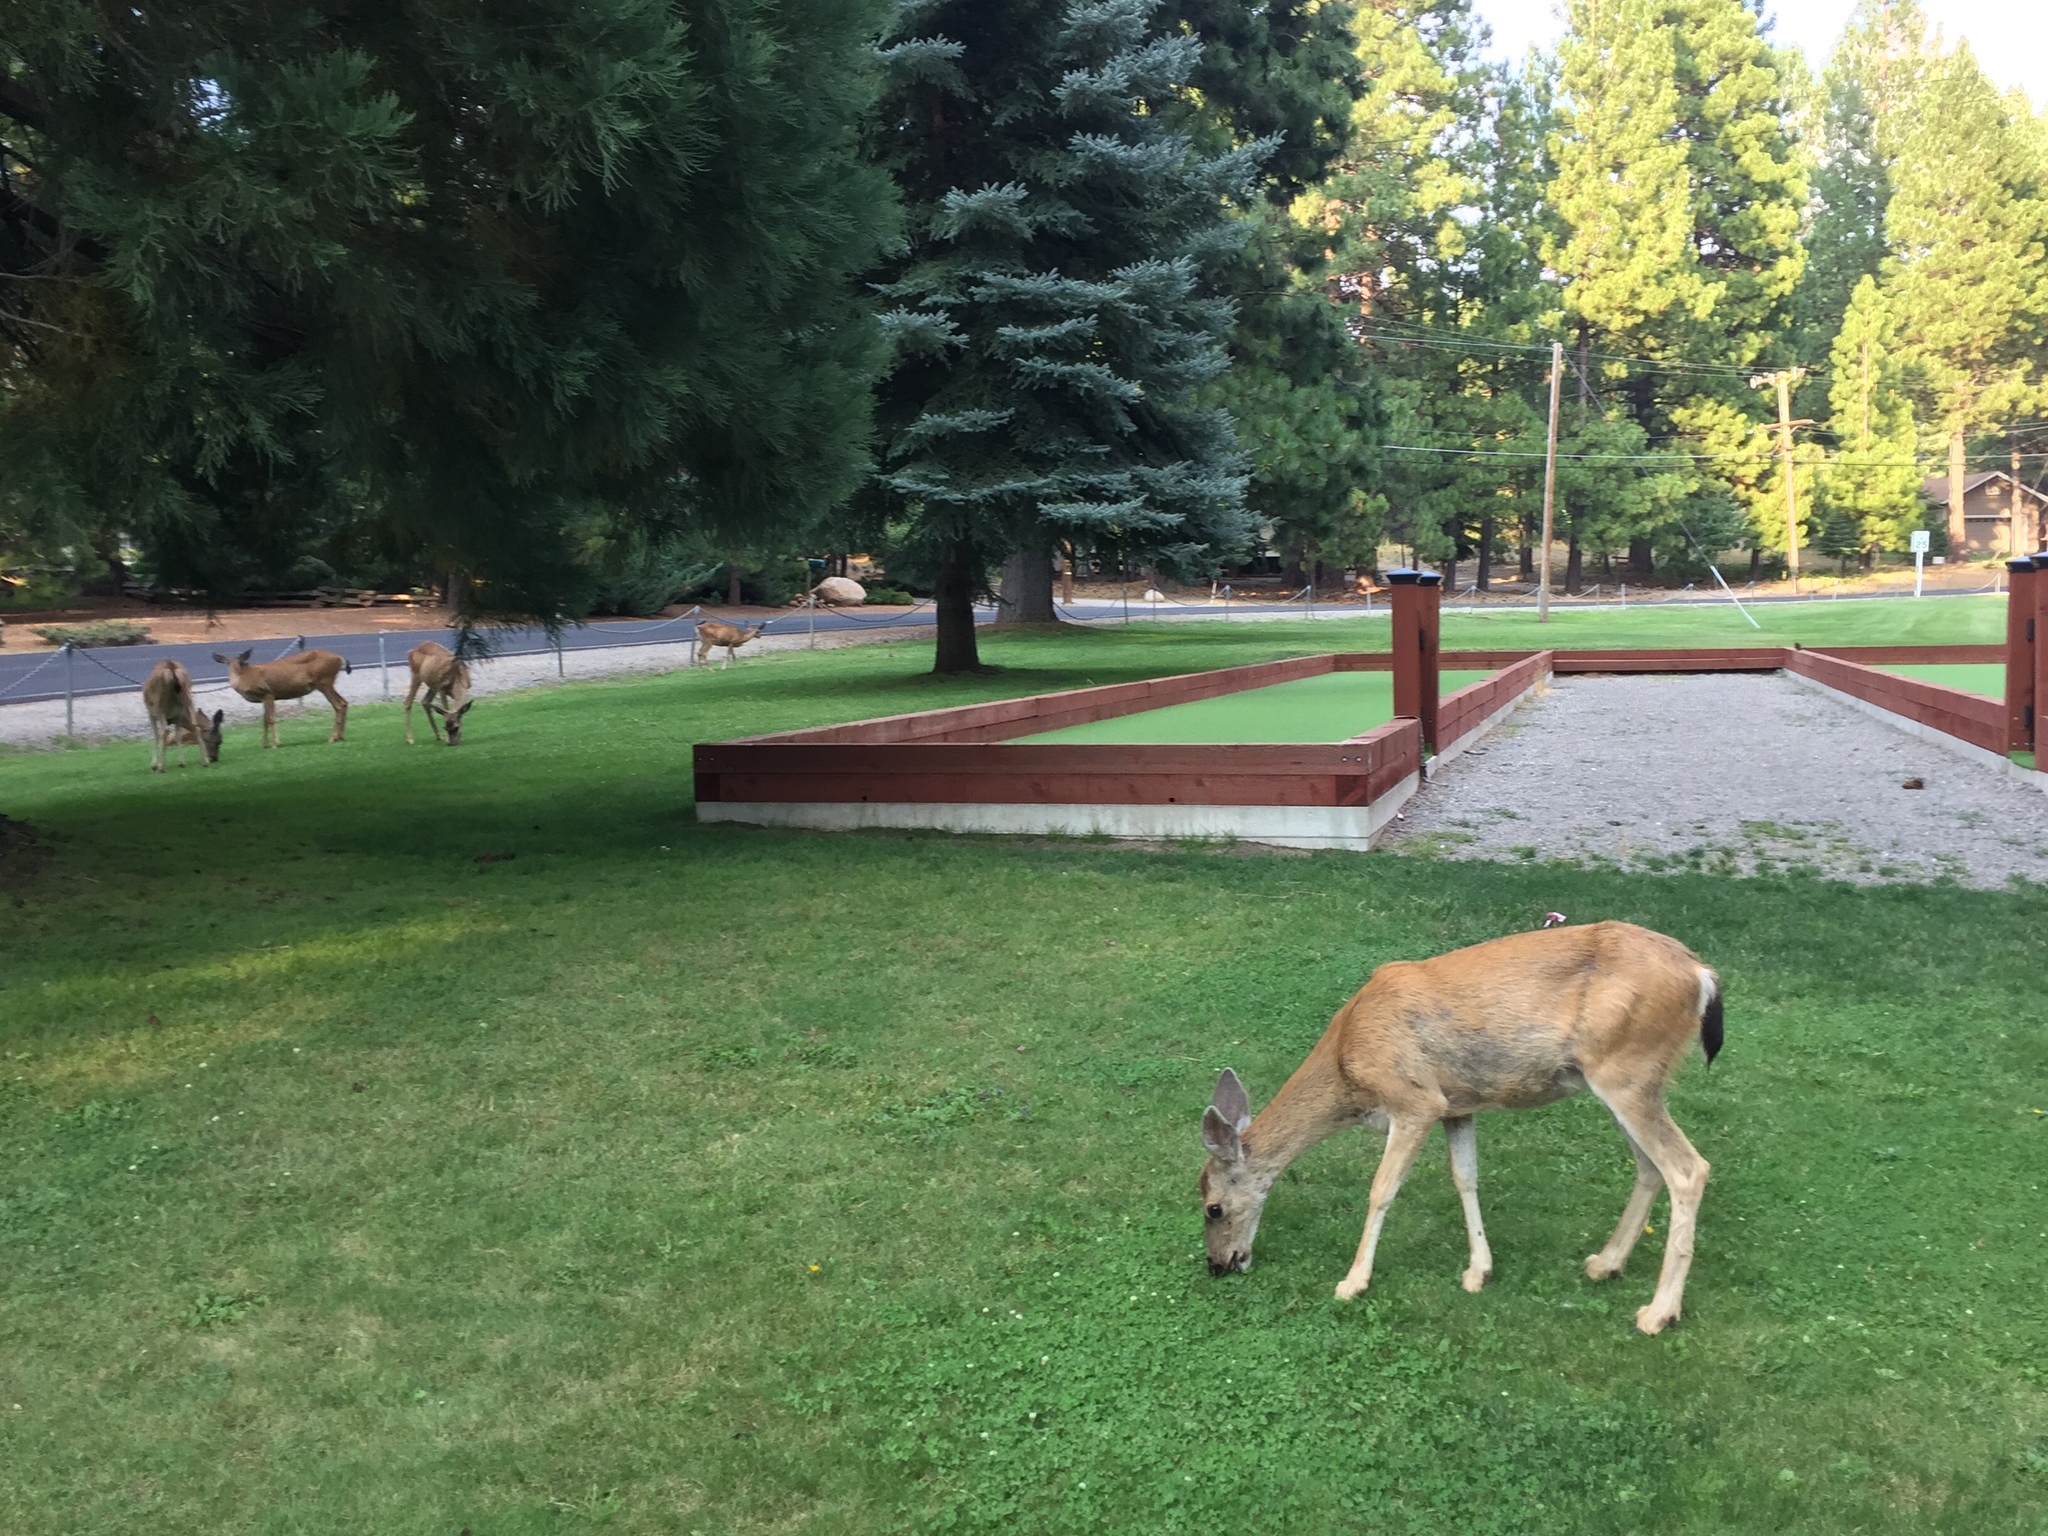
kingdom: Animalia
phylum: Chordata
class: Mammalia
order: Artiodactyla
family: Cervidae
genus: Odocoileus
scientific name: Odocoileus hemionus
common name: Mule deer
